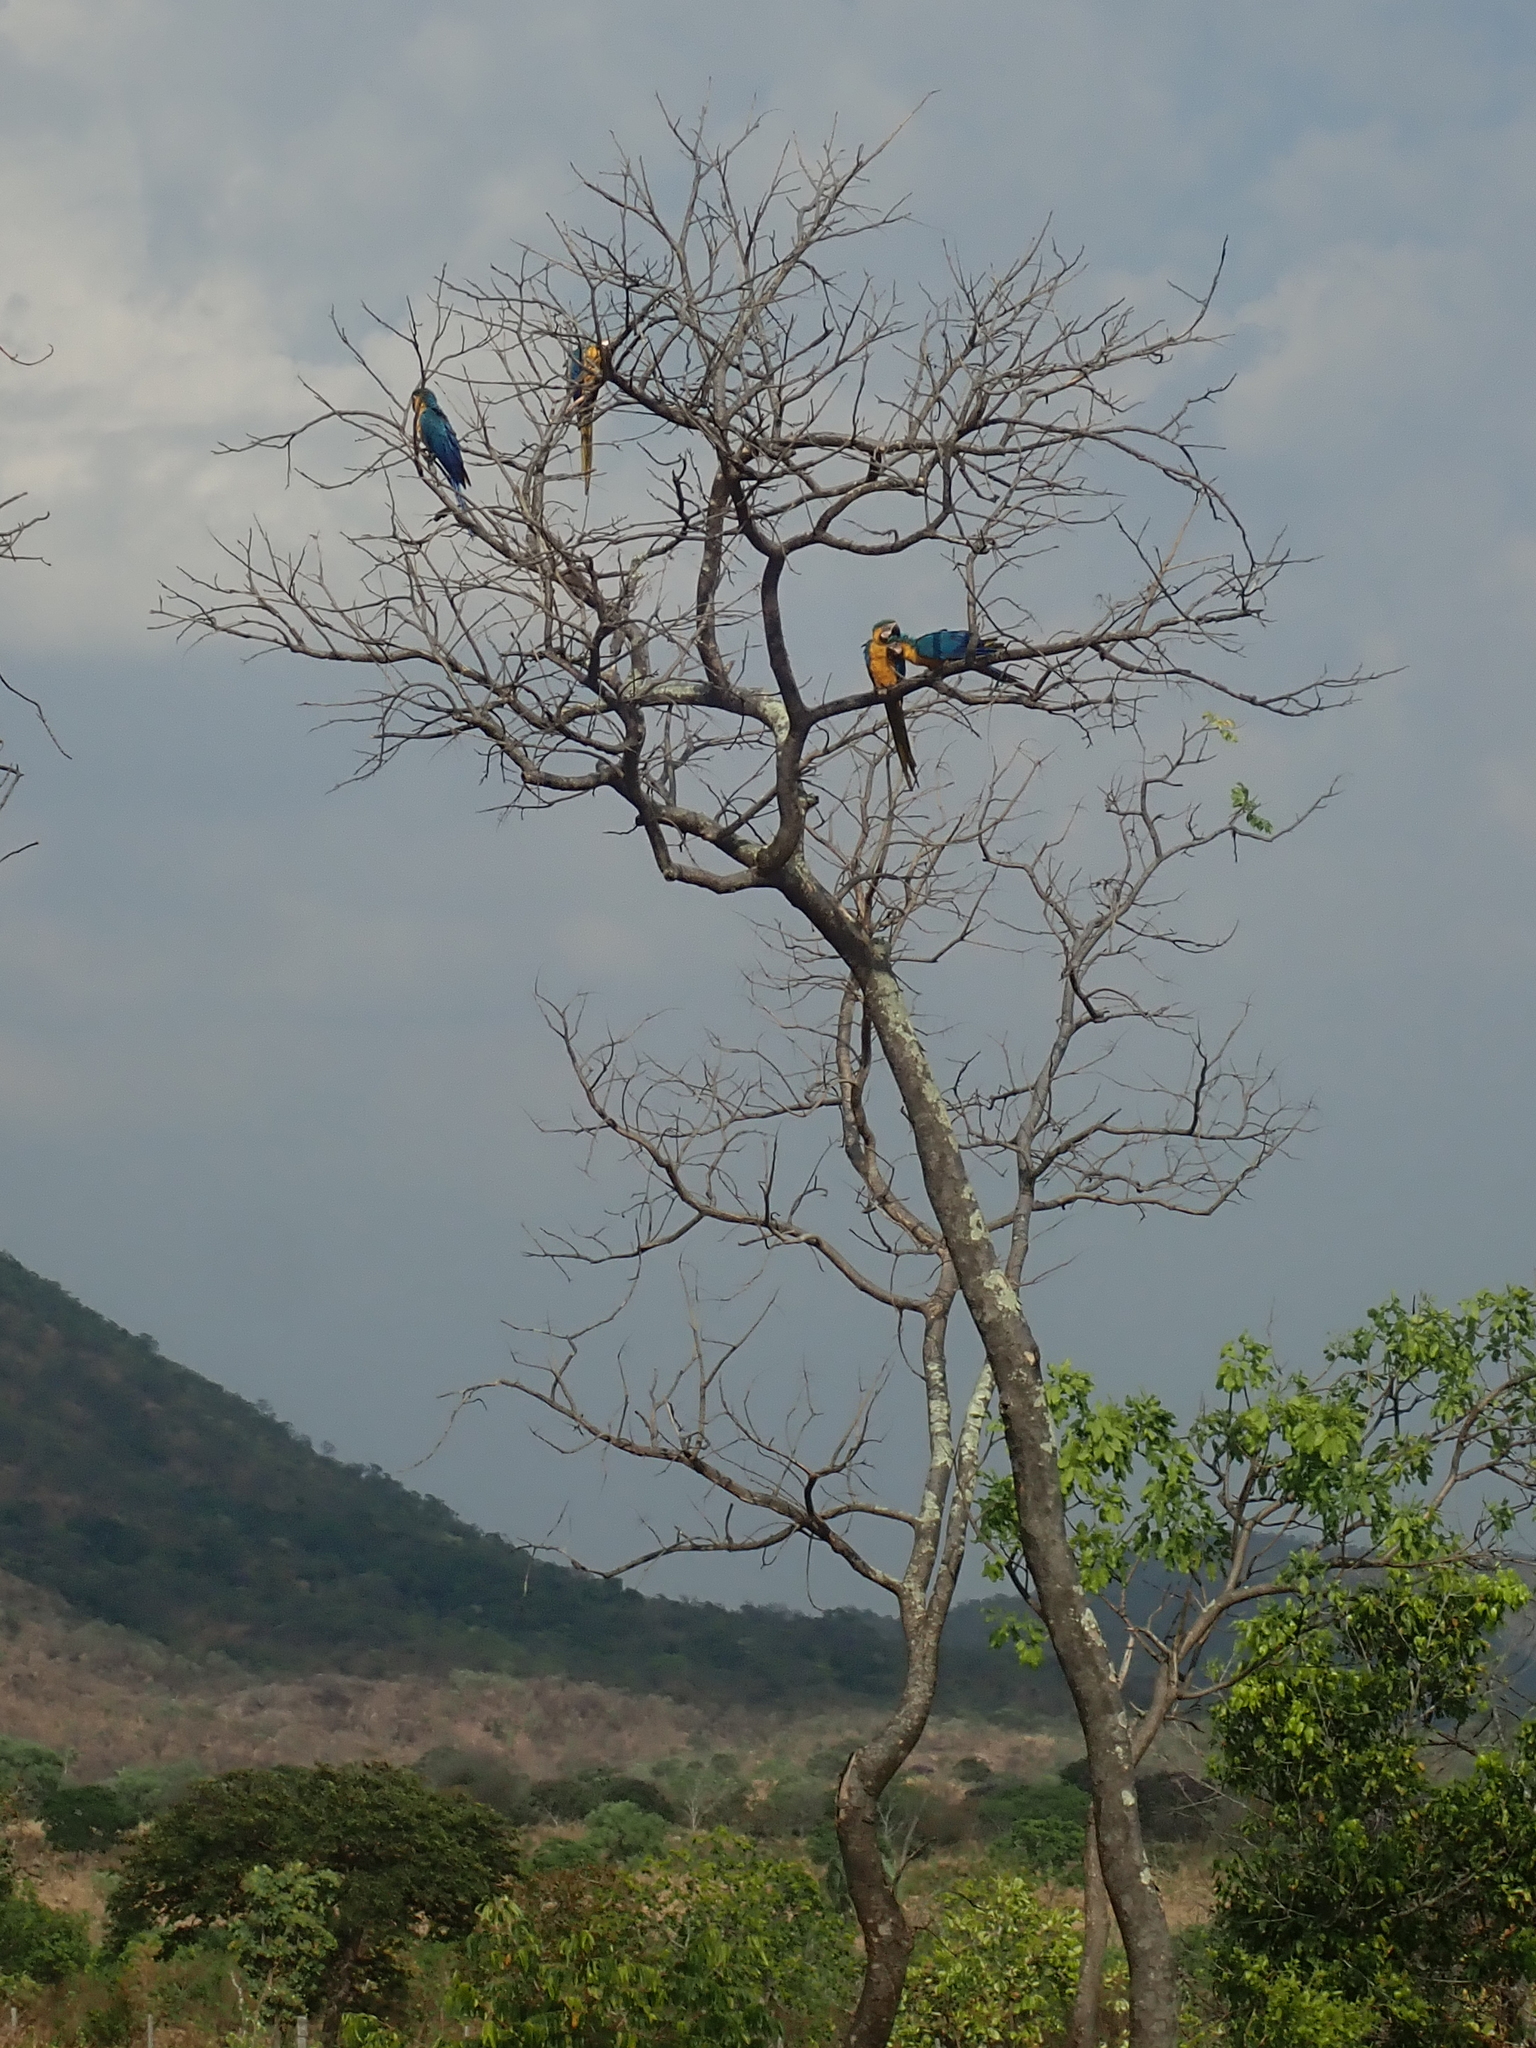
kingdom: Animalia
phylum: Chordata
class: Aves
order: Psittaciformes
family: Psittacidae
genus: Ara
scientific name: Ara ararauna
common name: Blue-and-yellow macaw
